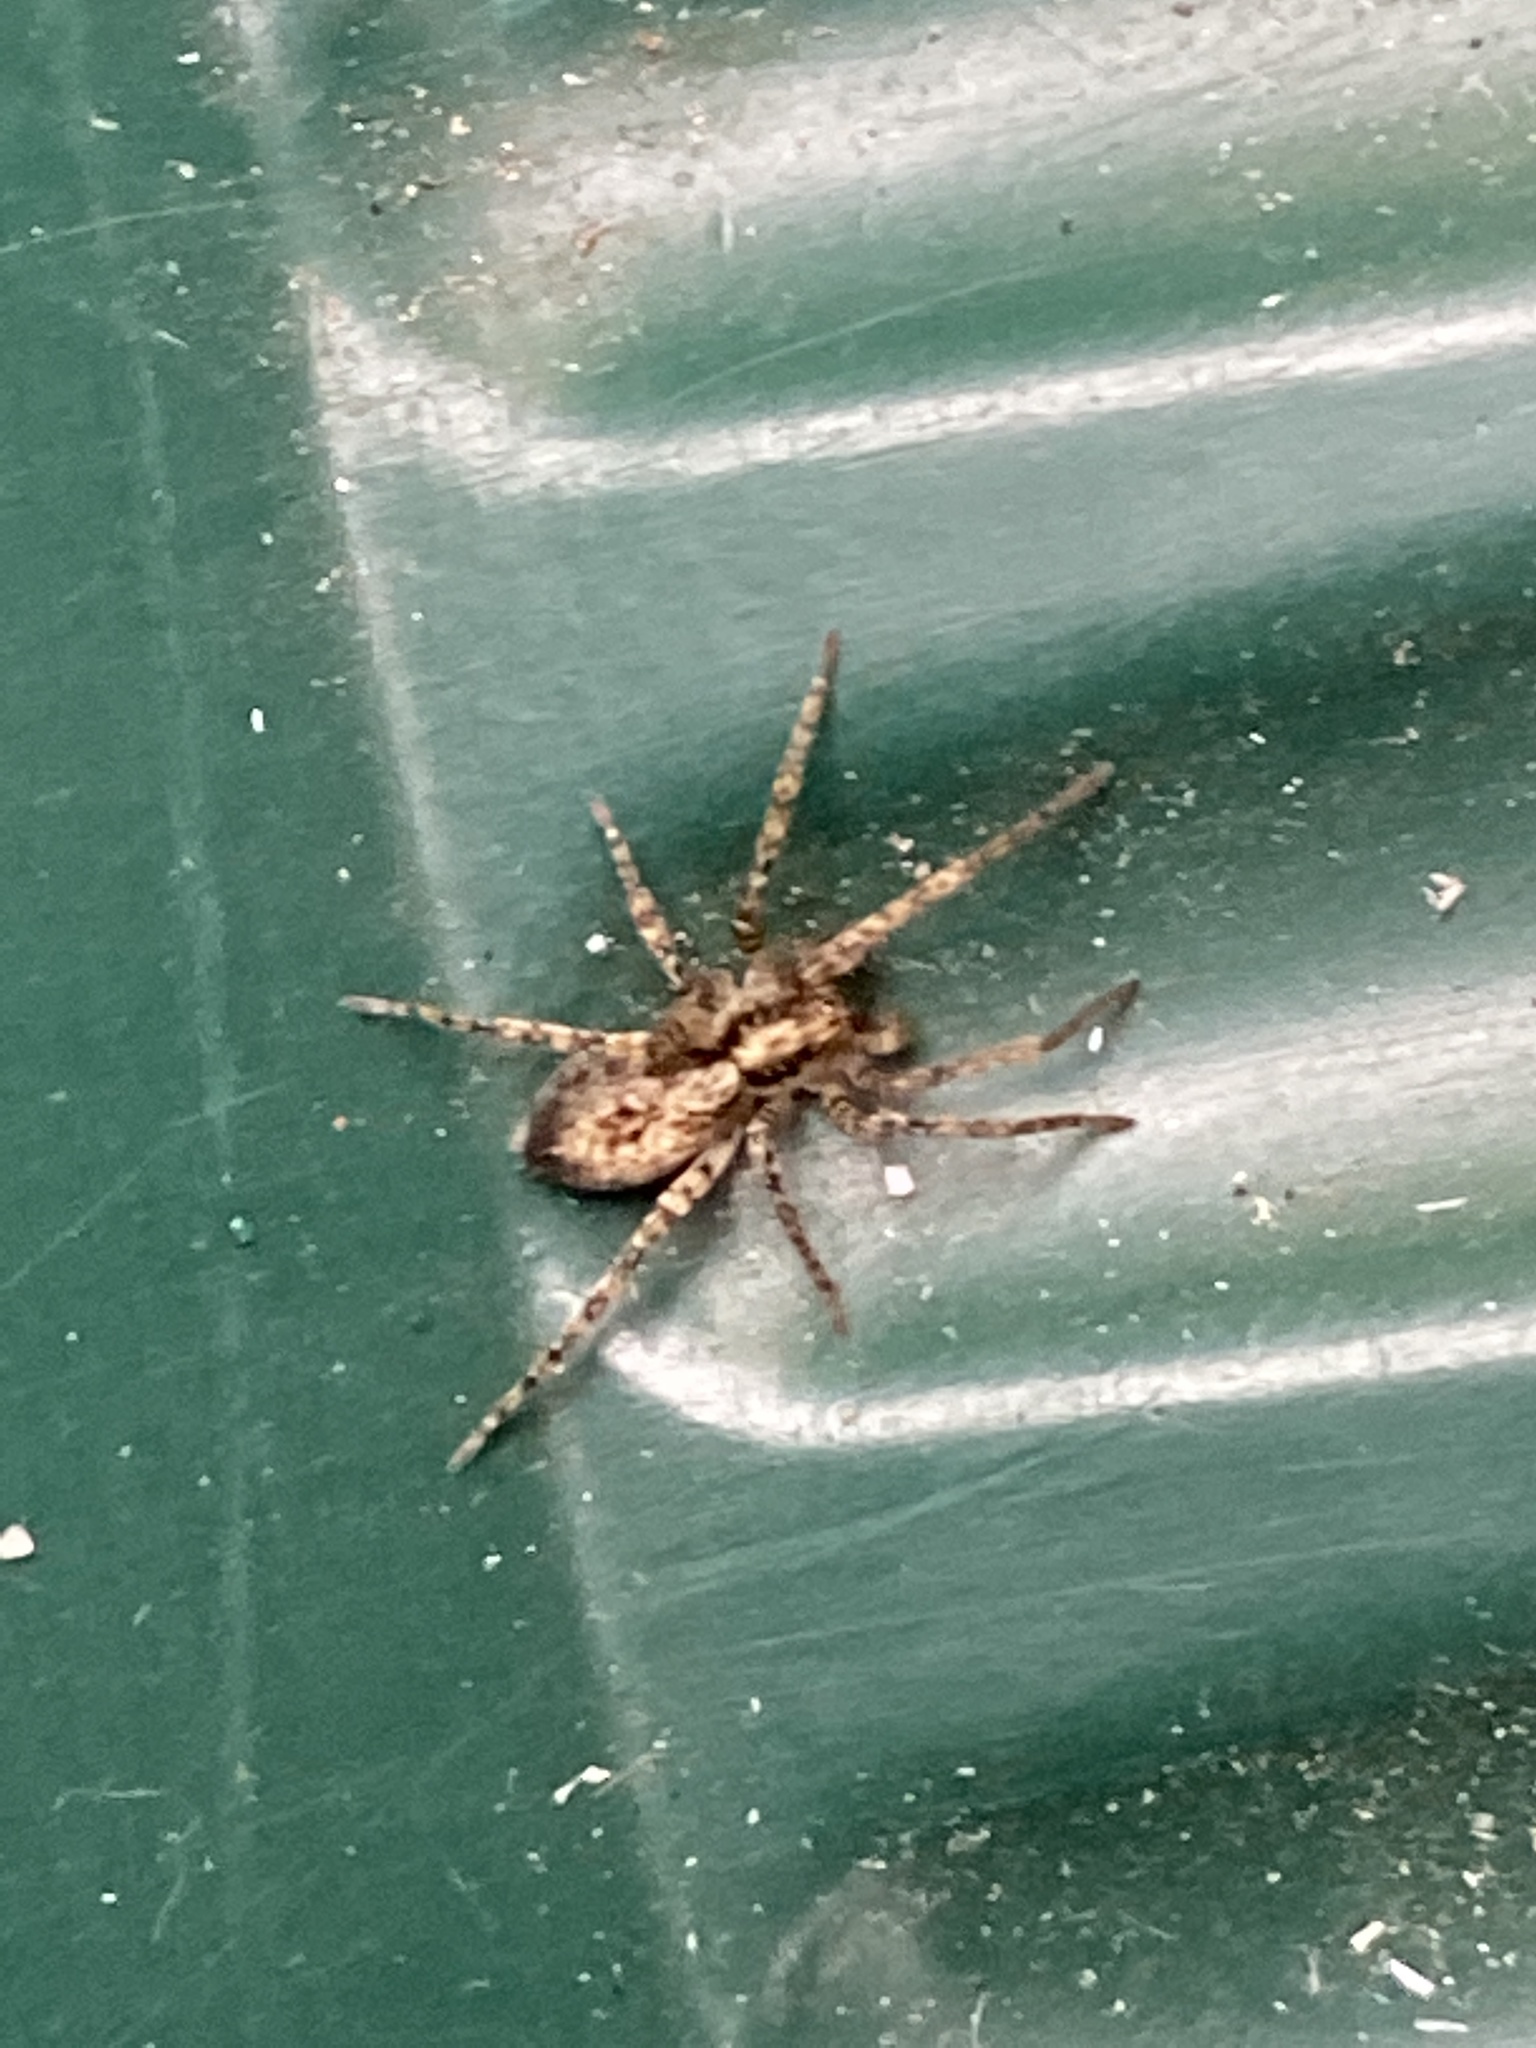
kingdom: Animalia
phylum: Arthropoda
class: Arachnida
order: Araneae
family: Anyphaenidae
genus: Anyphaena
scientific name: Anyphaena accentuata
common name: Buzzing spider
